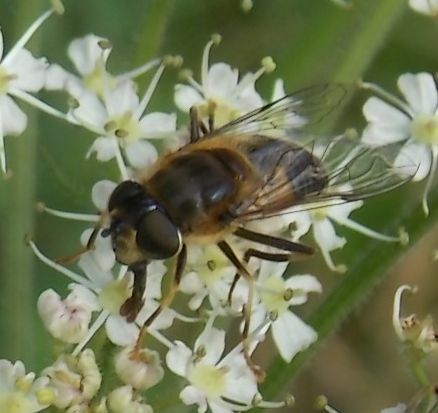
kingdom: Animalia
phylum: Arthropoda
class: Insecta
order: Diptera
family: Syrphidae
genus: Eristalis
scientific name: Eristalis pertinax
